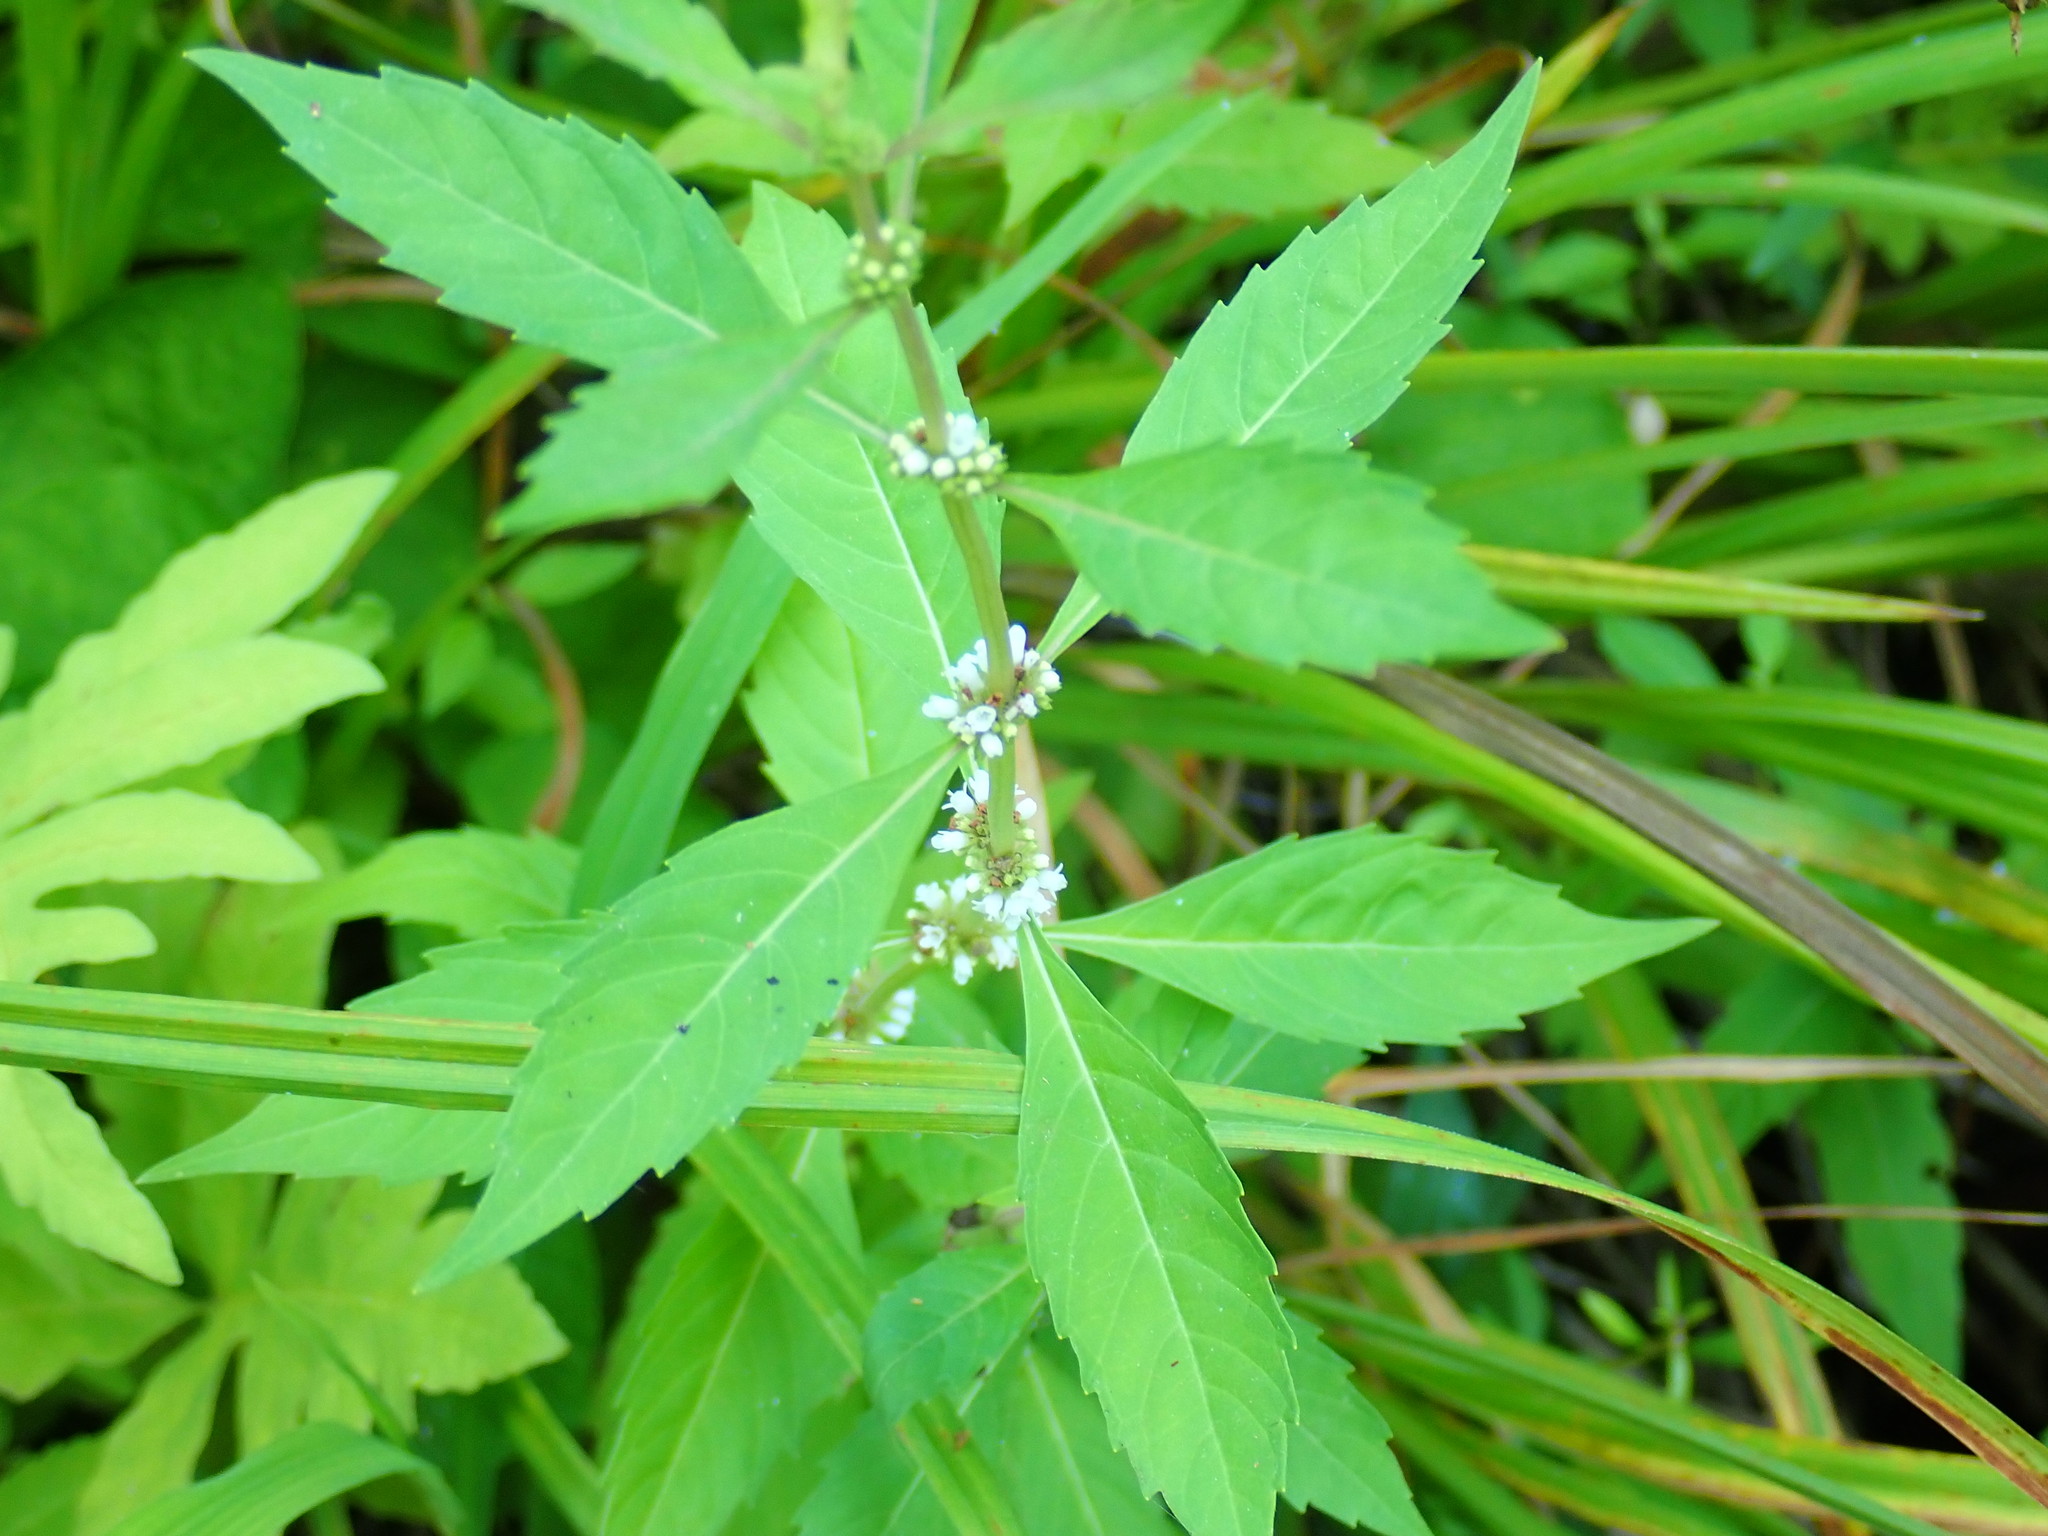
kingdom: Plantae
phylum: Tracheophyta
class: Magnoliopsida
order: Lamiales
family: Lamiaceae
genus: Lycopus
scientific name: Lycopus uniflorus
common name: Northern bugleweed
